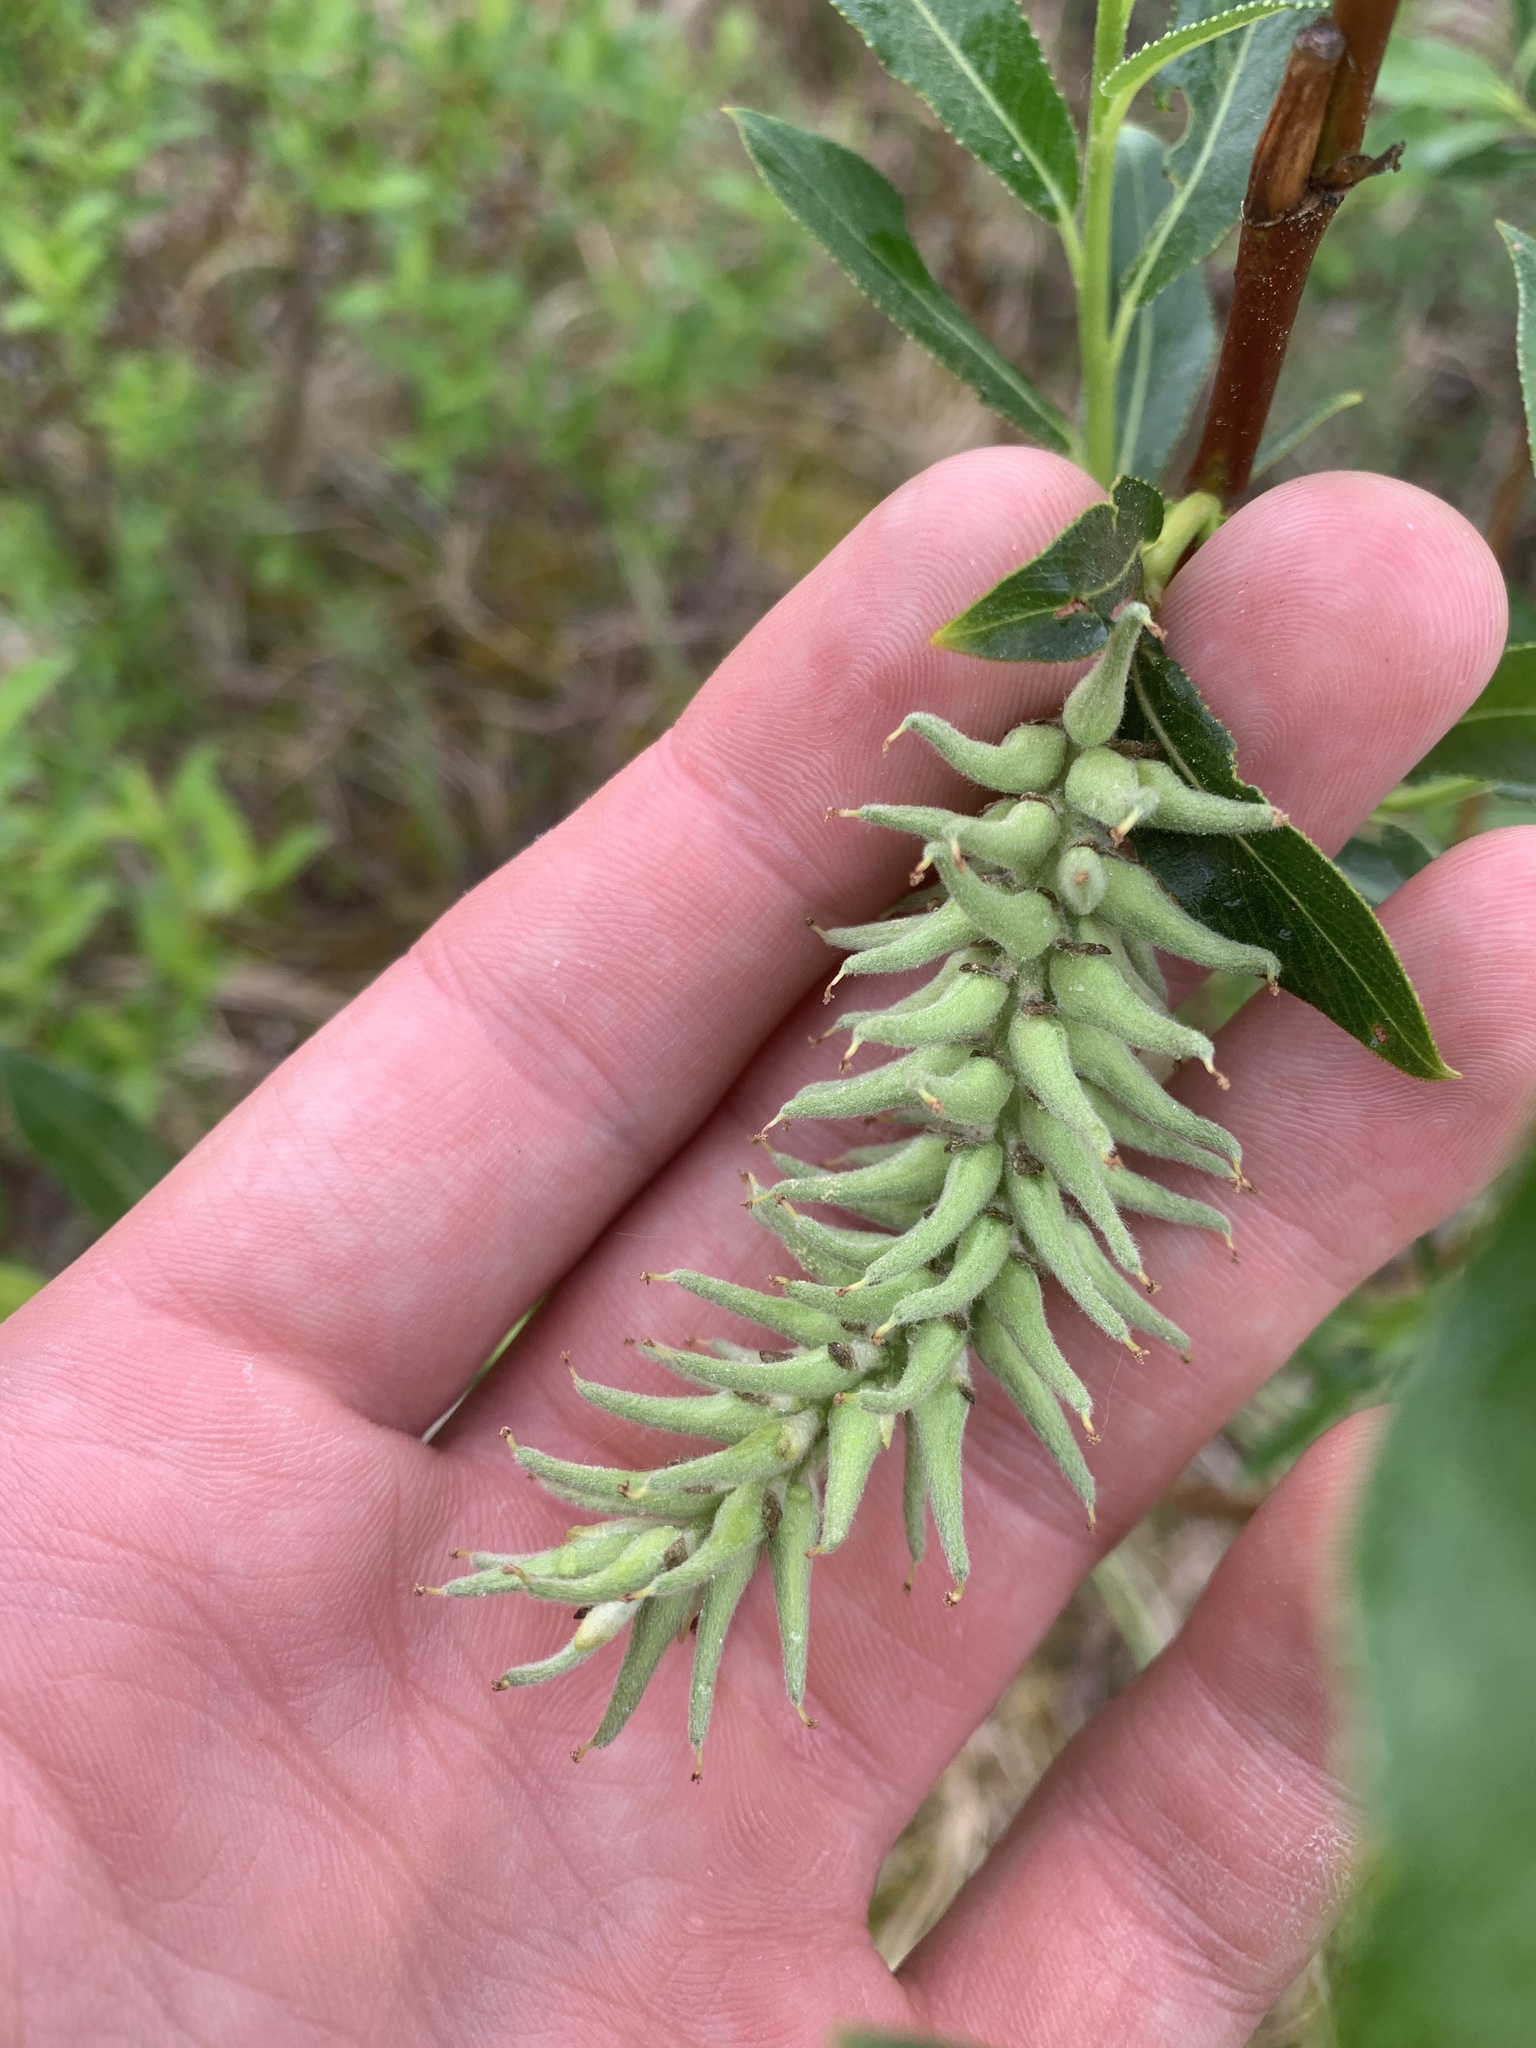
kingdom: Plantae
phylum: Tracheophyta
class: Magnoliopsida
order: Malpighiales
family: Salicaceae
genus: Salix
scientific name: Salix maccalliana
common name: Maccalla’s willow
